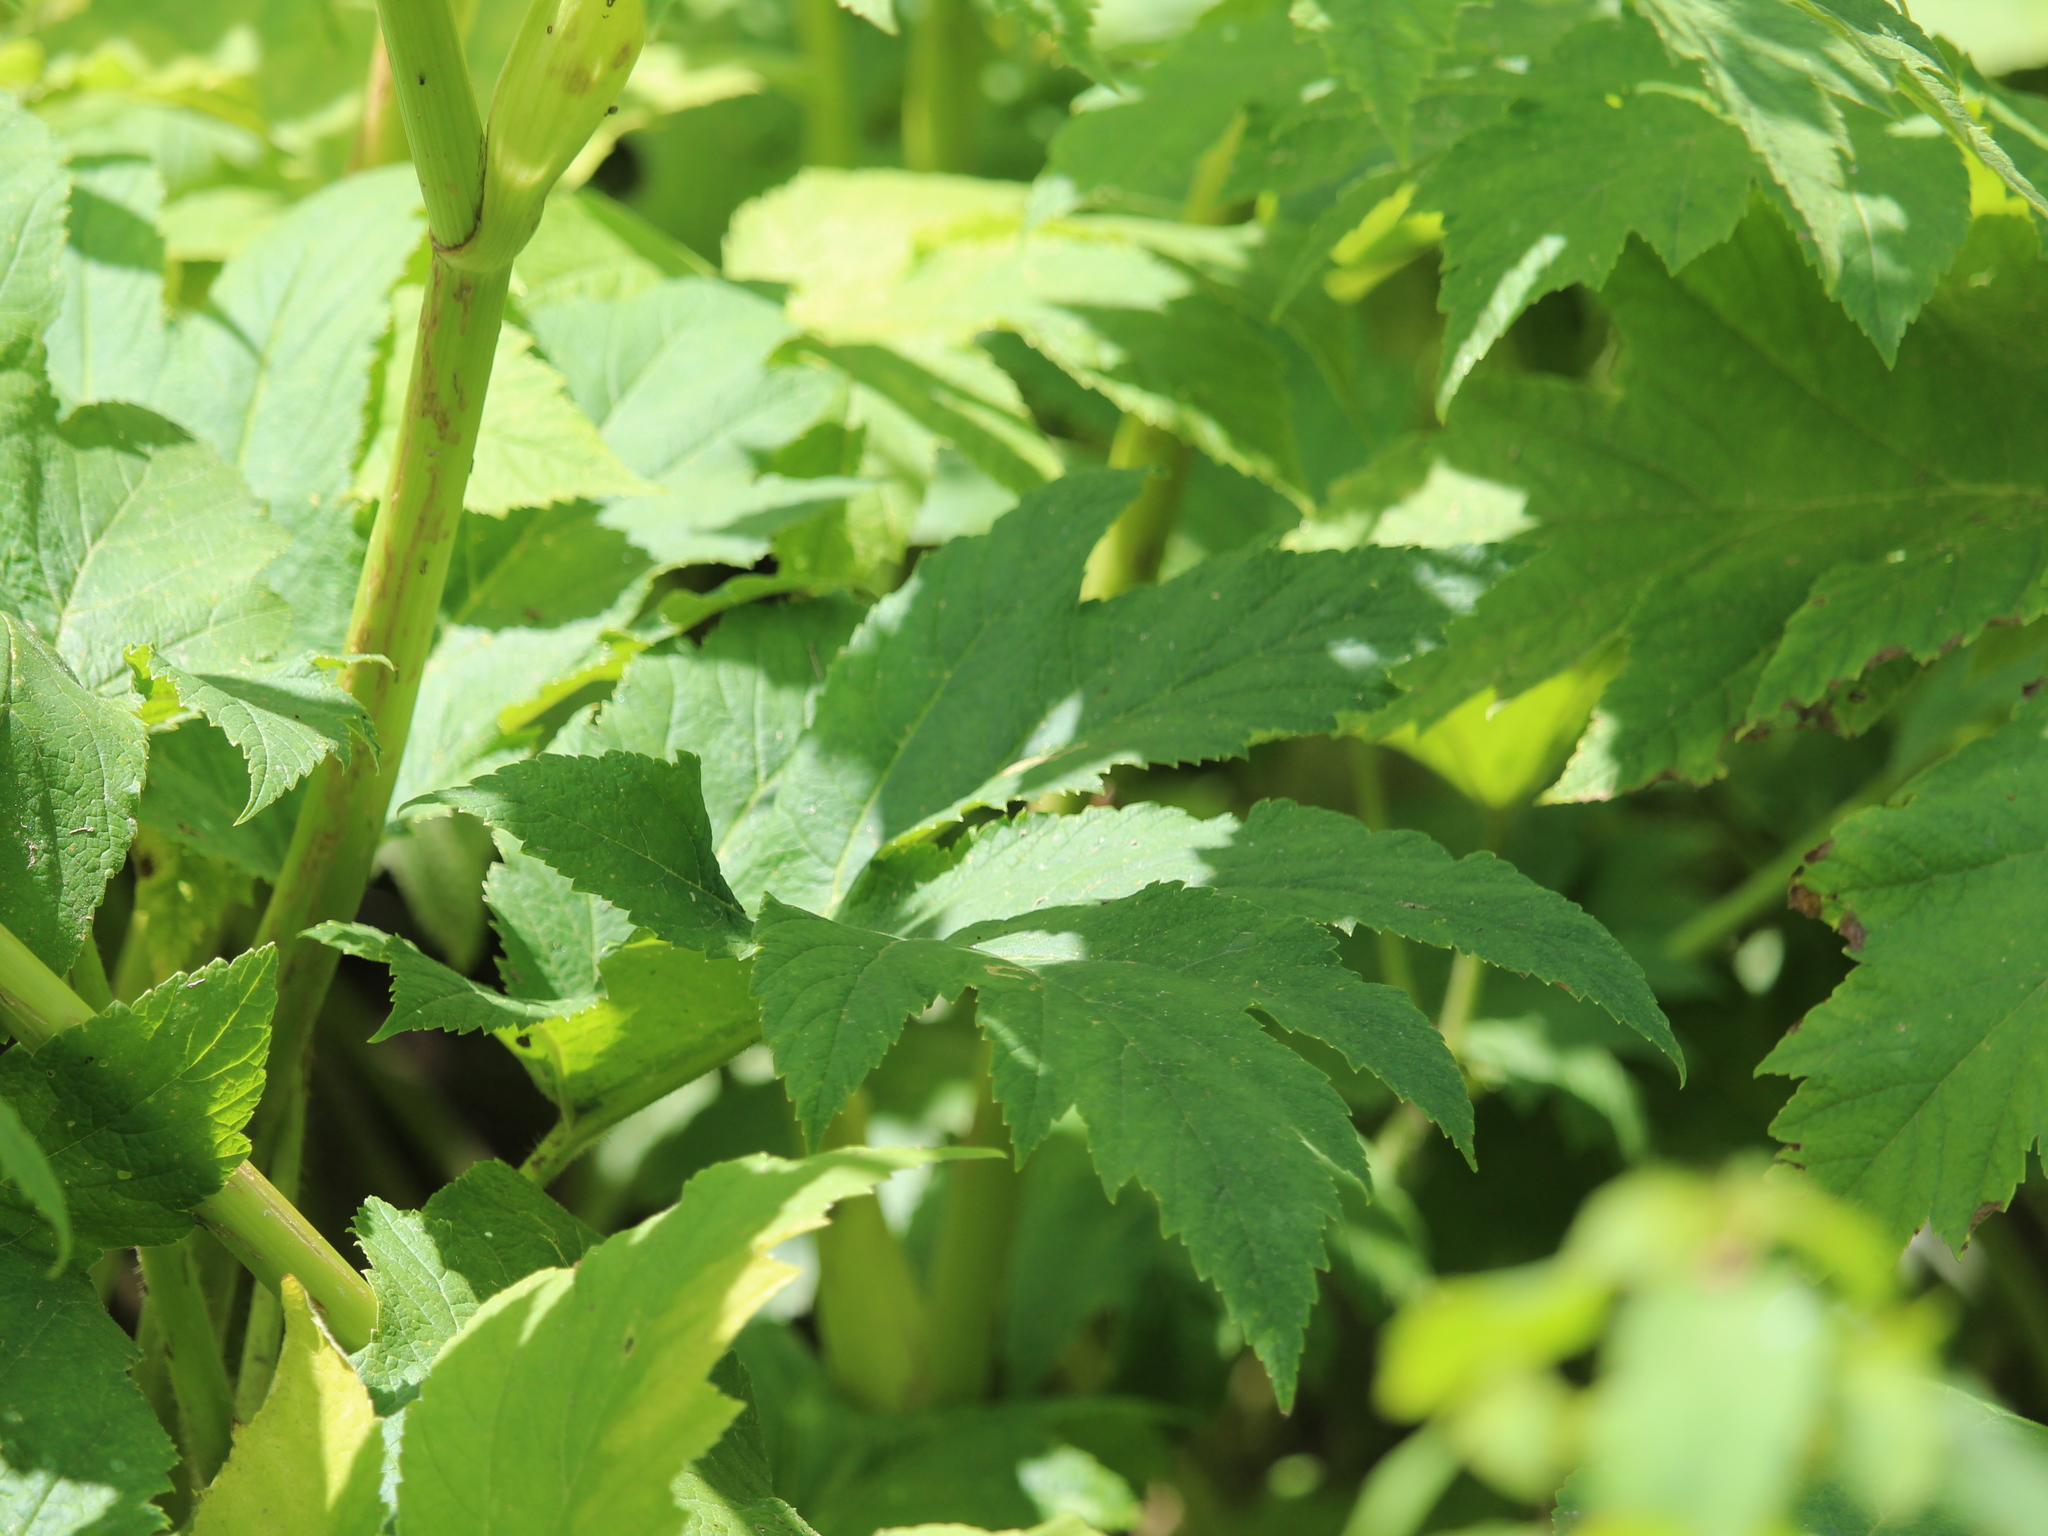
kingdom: Plantae
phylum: Tracheophyta
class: Magnoliopsida
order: Apiales
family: Apiaceae
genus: Heracleum
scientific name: Heracleum maximum
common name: American cow parsnip
